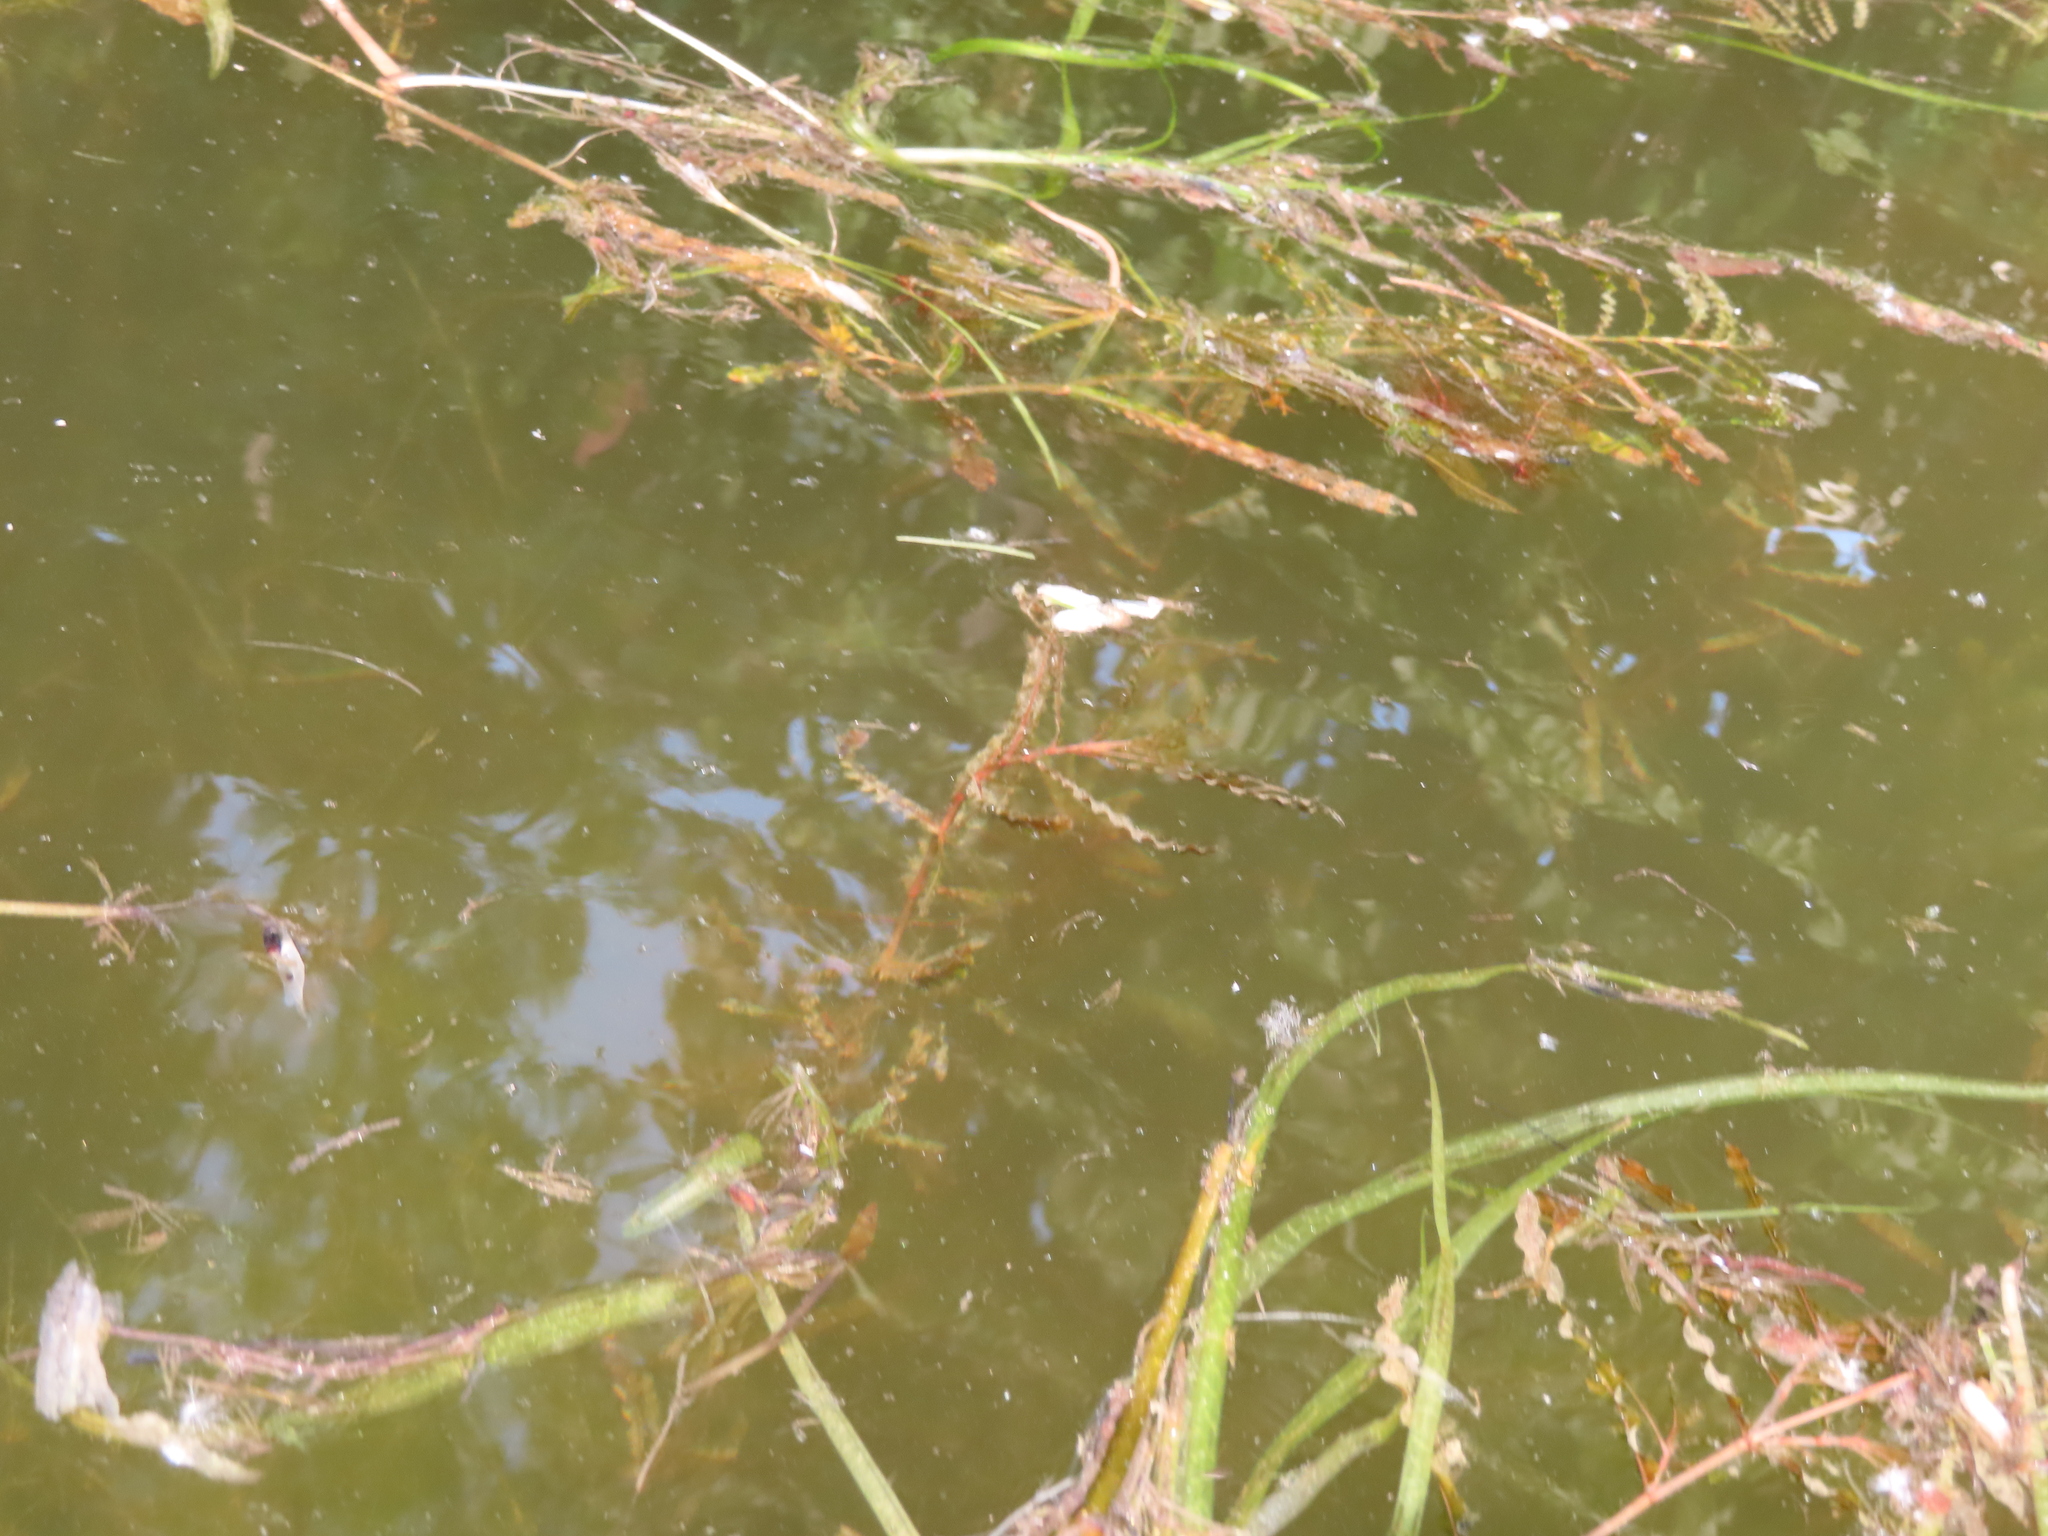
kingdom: Plantae
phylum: Tracheophyta
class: Liliopsida
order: Alismatales
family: Potamogetonaceae
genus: Potamogeton
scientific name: Potamogeton crispus
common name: Curled pondweed
